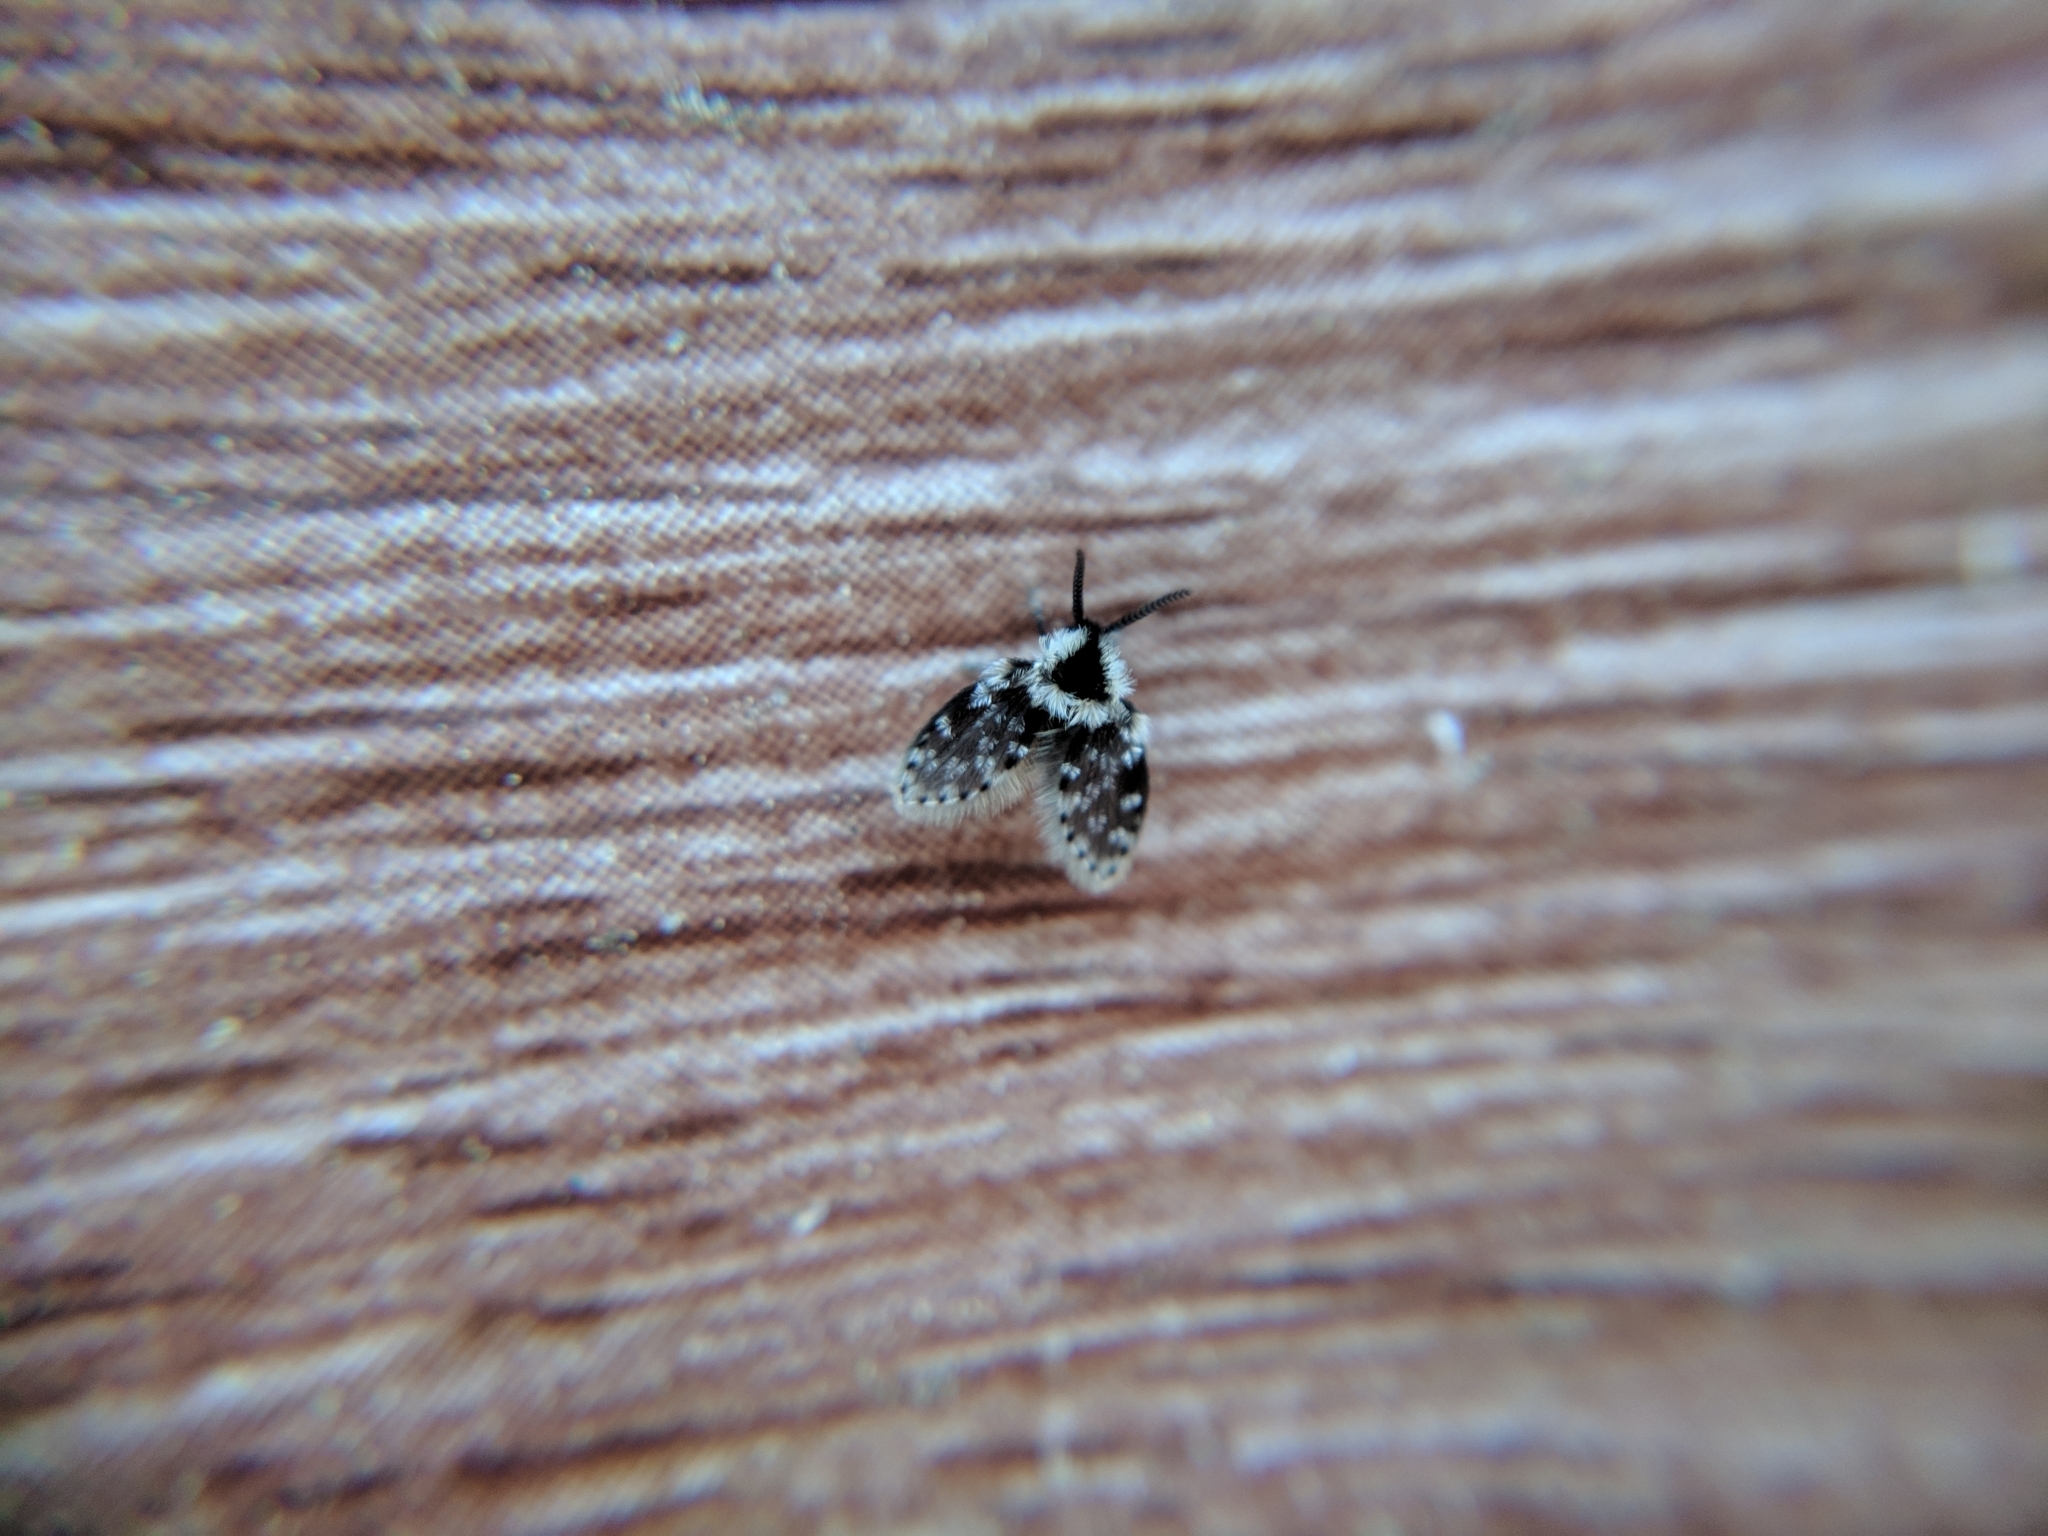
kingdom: Animalia
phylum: Arthropoda
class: Insecta
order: Diptera
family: Psychodidae
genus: Lepiseodina
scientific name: Lepiseodina
